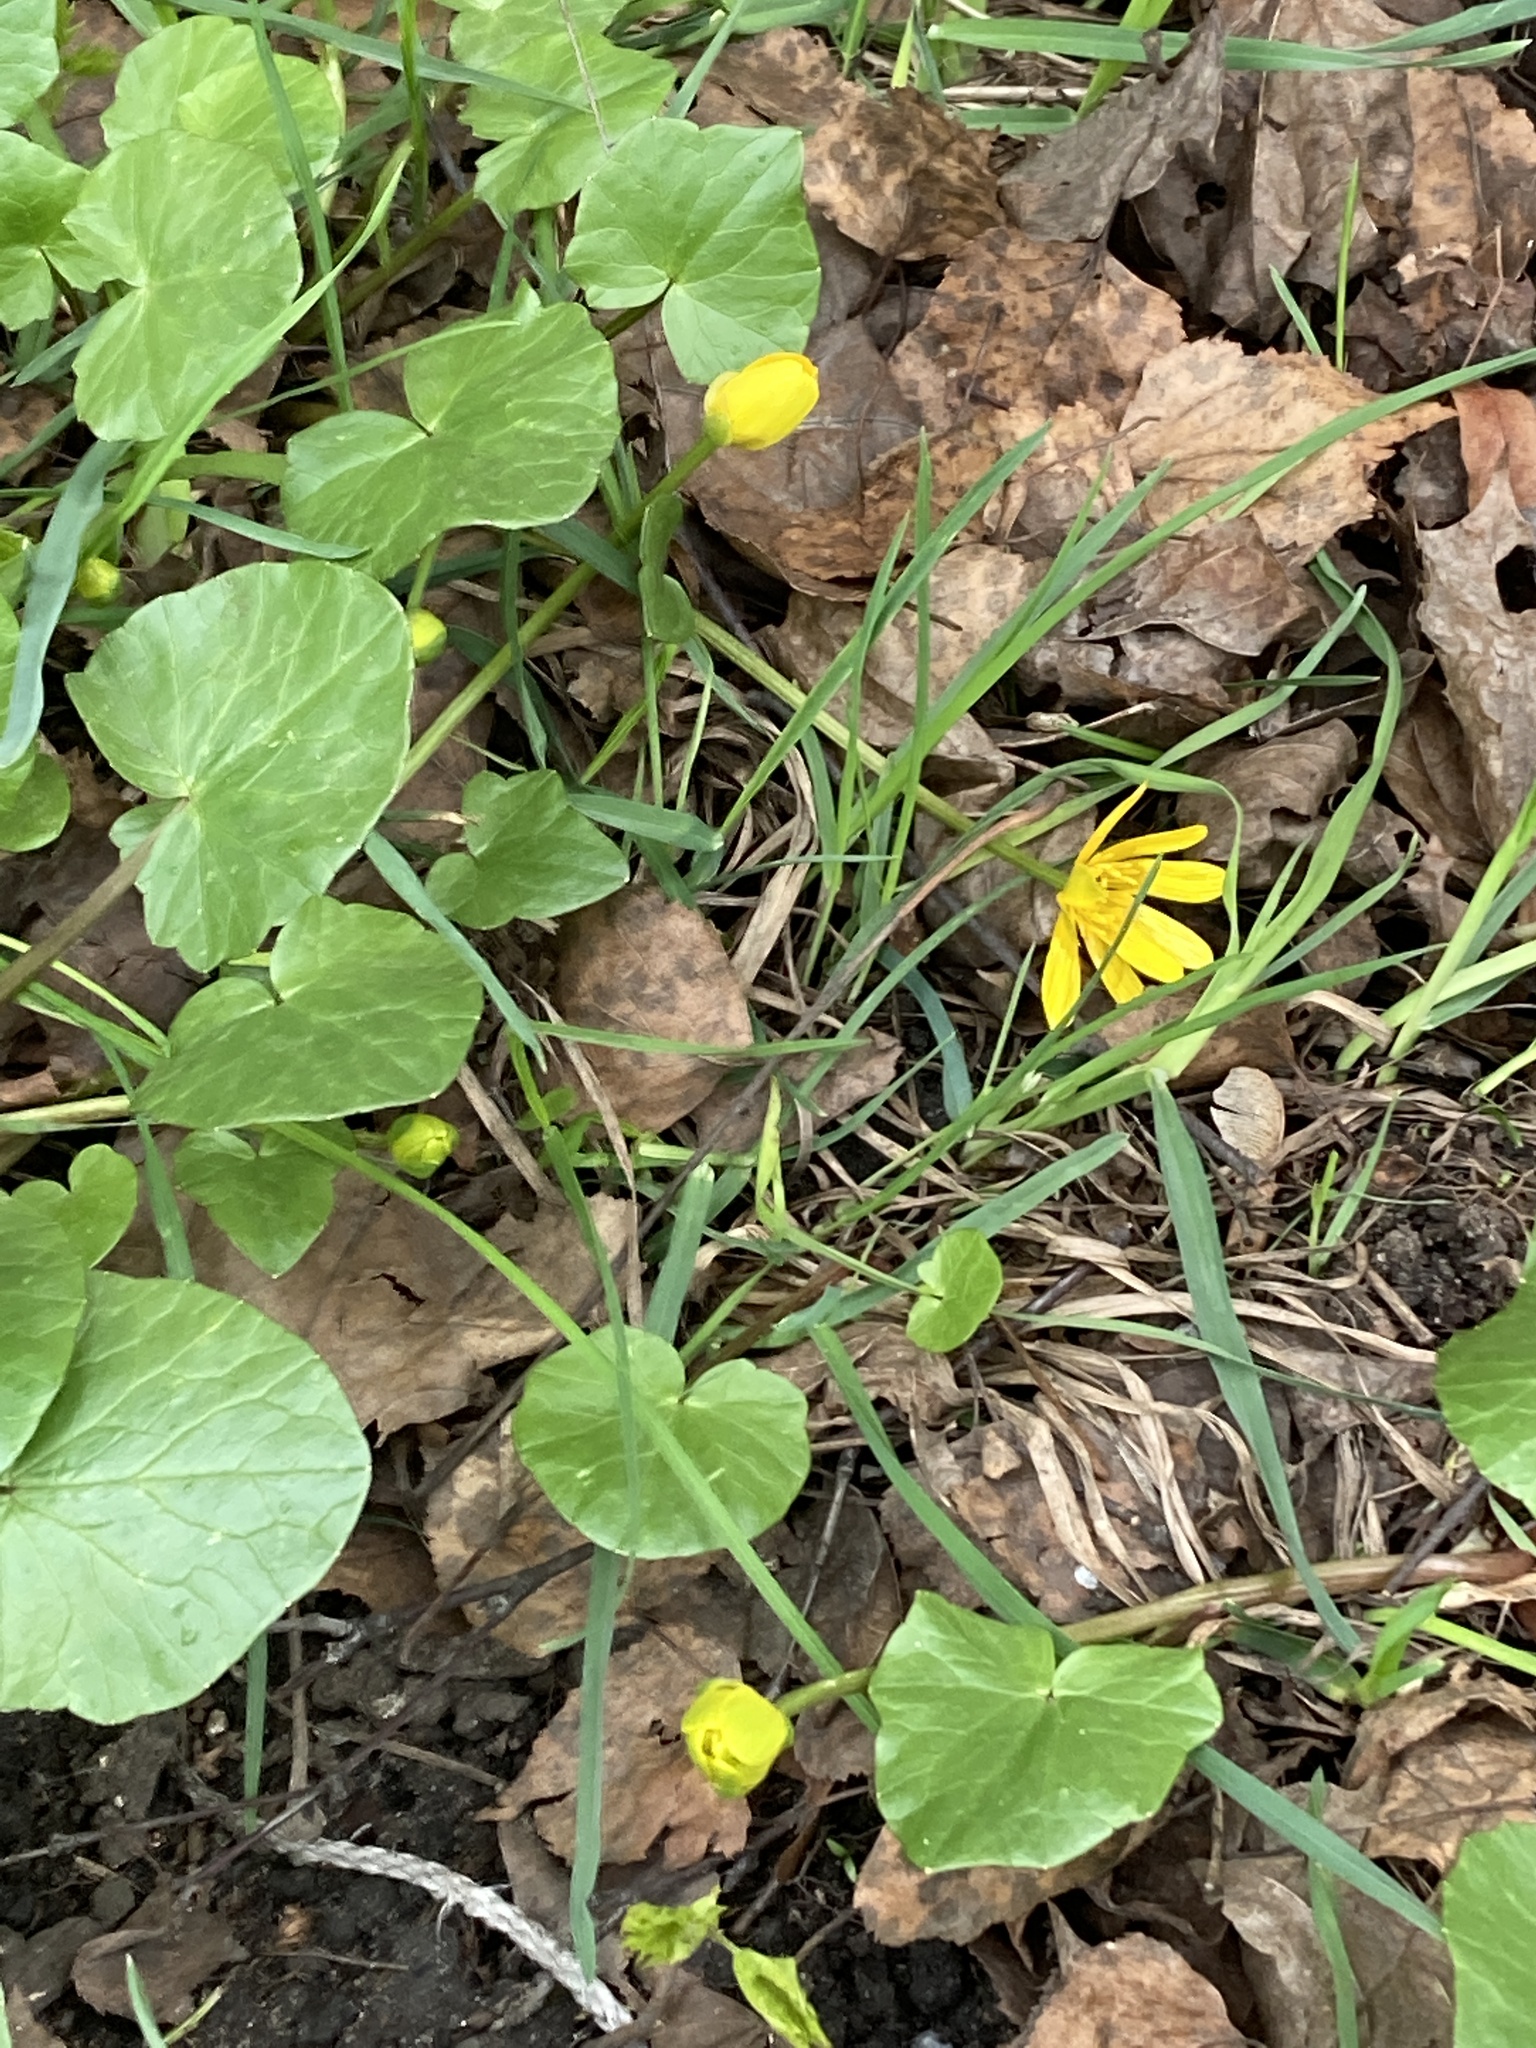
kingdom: Plantae
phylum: Tracheophyta
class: Magnoliopsida
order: Ranunculales
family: Ranunculaceae
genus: Ficaria
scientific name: Ficaria verna
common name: Lesser celandine
